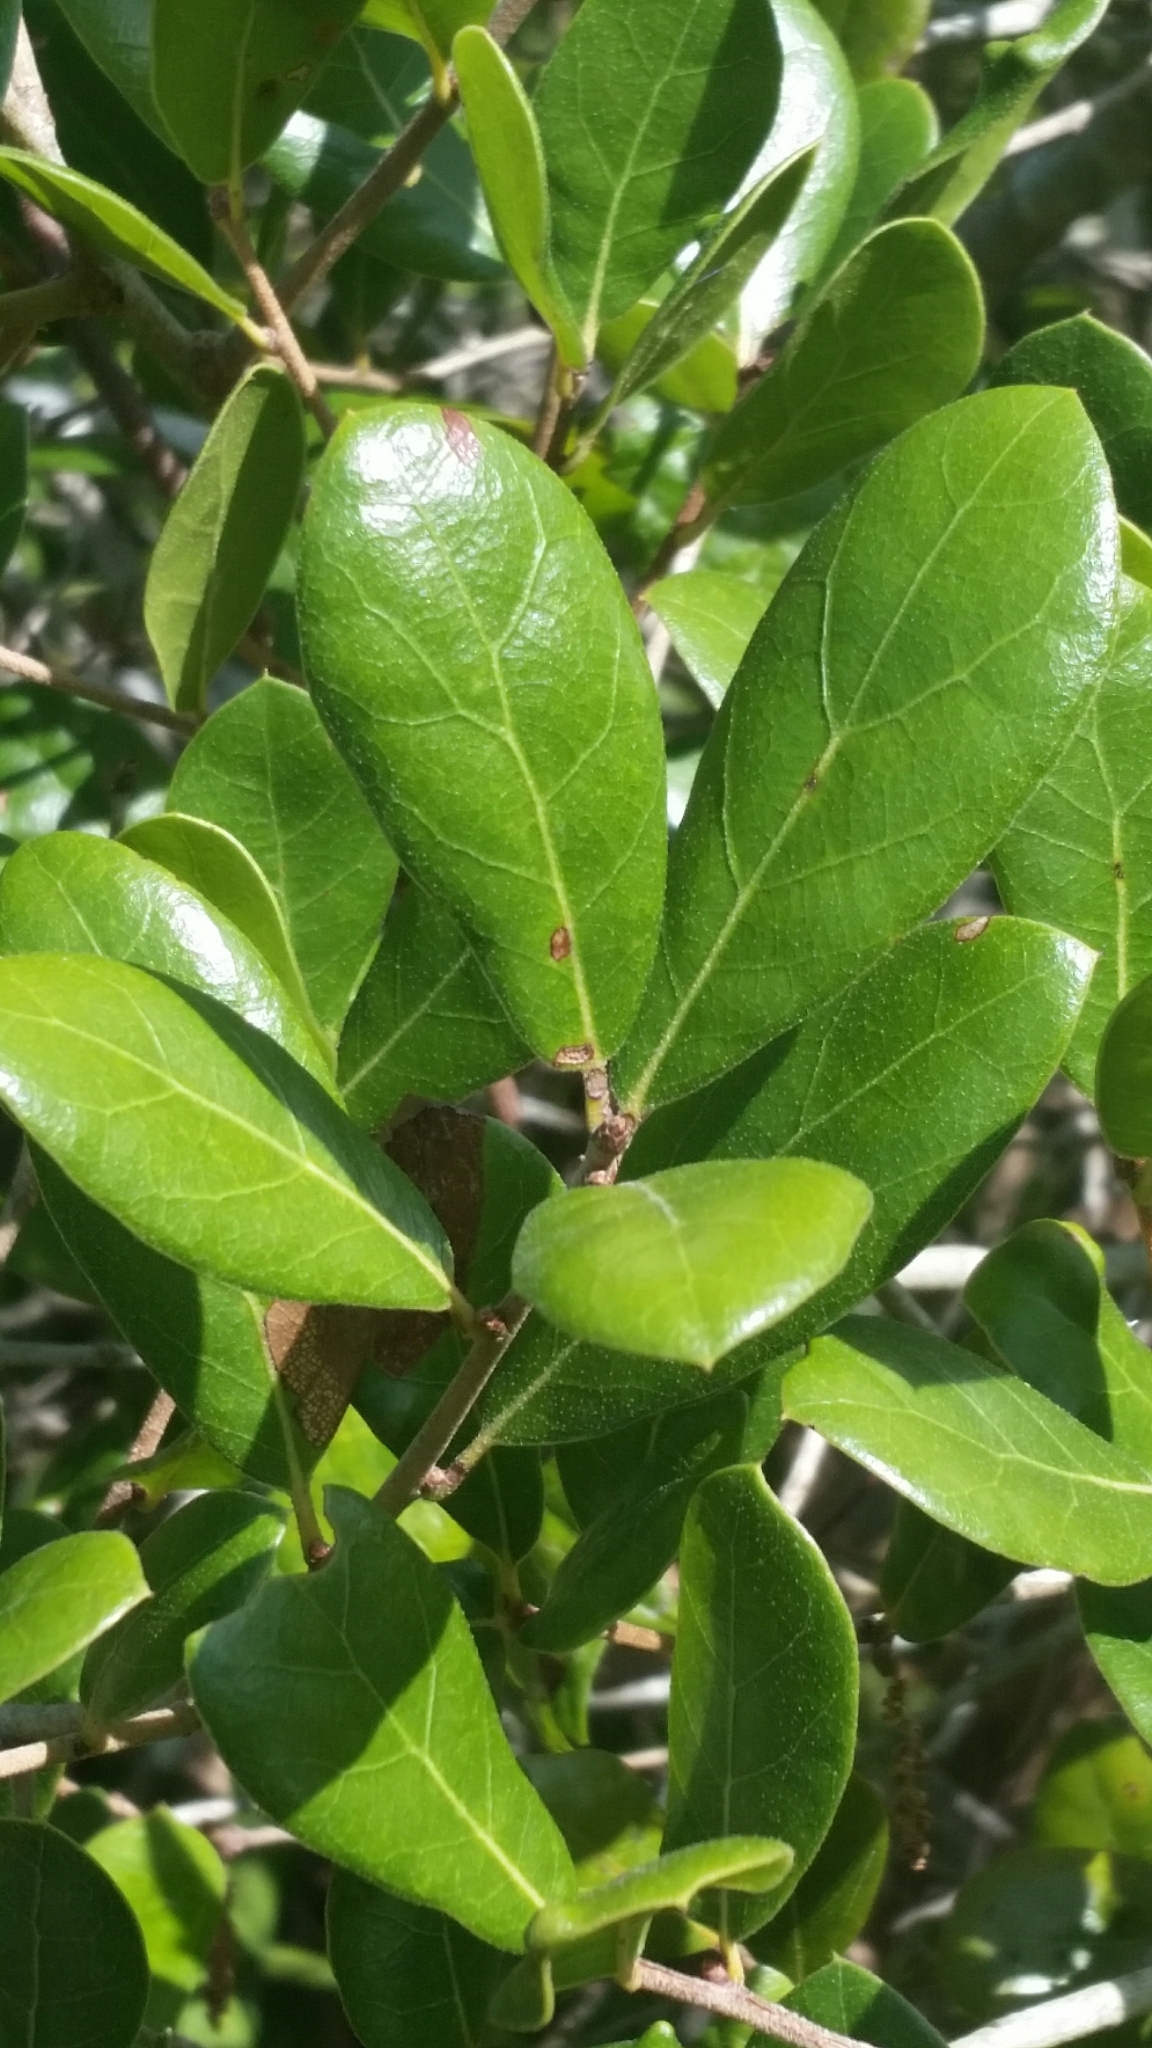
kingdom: Plantae
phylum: Tracheophyta
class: Magnoliopsida
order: Fagales
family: Fagaceae
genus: Quercus
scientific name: Quercus myrtifolia
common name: Myrtle oak
